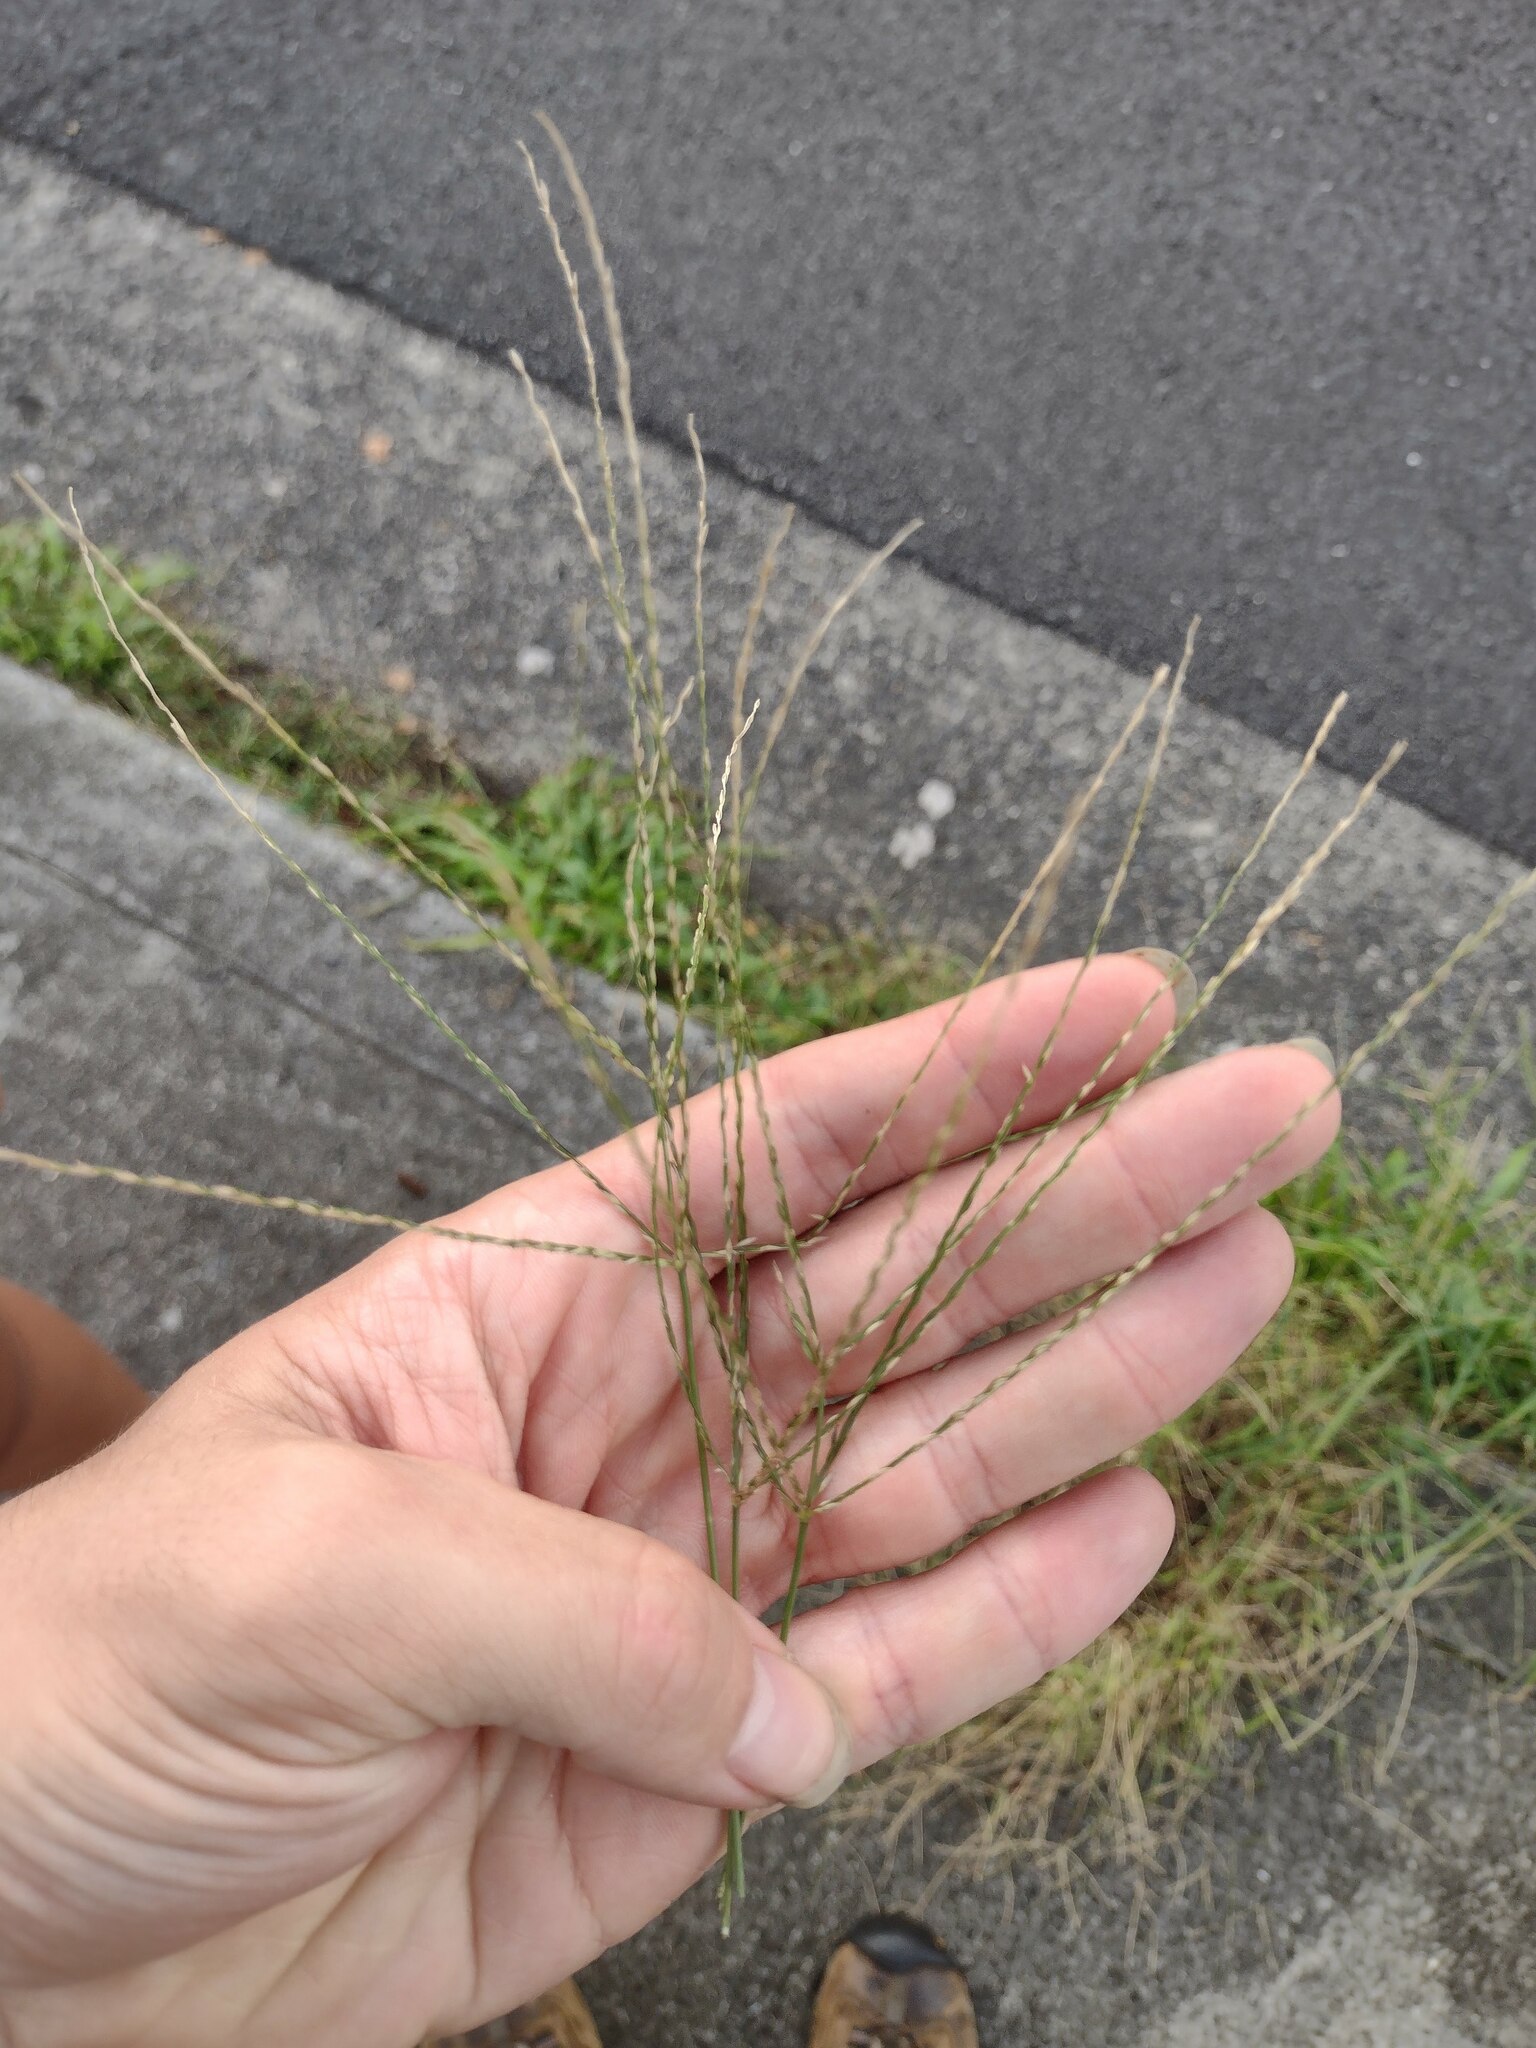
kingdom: Plantae
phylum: Tracheophyta
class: Liliopsida
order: Poales
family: Poaceae
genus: Digitaria
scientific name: Digitaria ciliaris
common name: Tropical finger-grass
